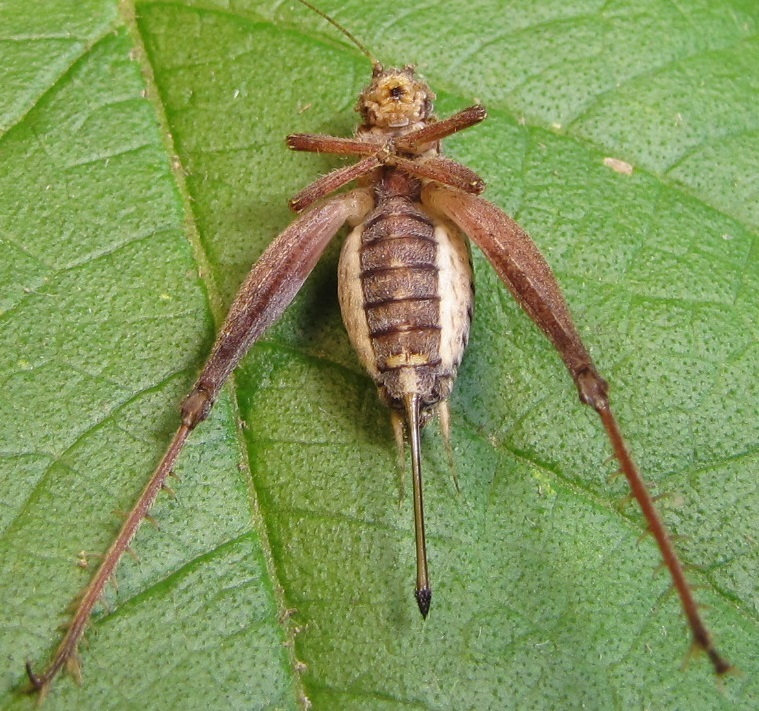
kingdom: Animalia
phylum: Arthropoda
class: Insecta
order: Orthoptera
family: Gryllidae
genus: Hapithus
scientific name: Hapithus agitator
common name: Restless bush cricket
